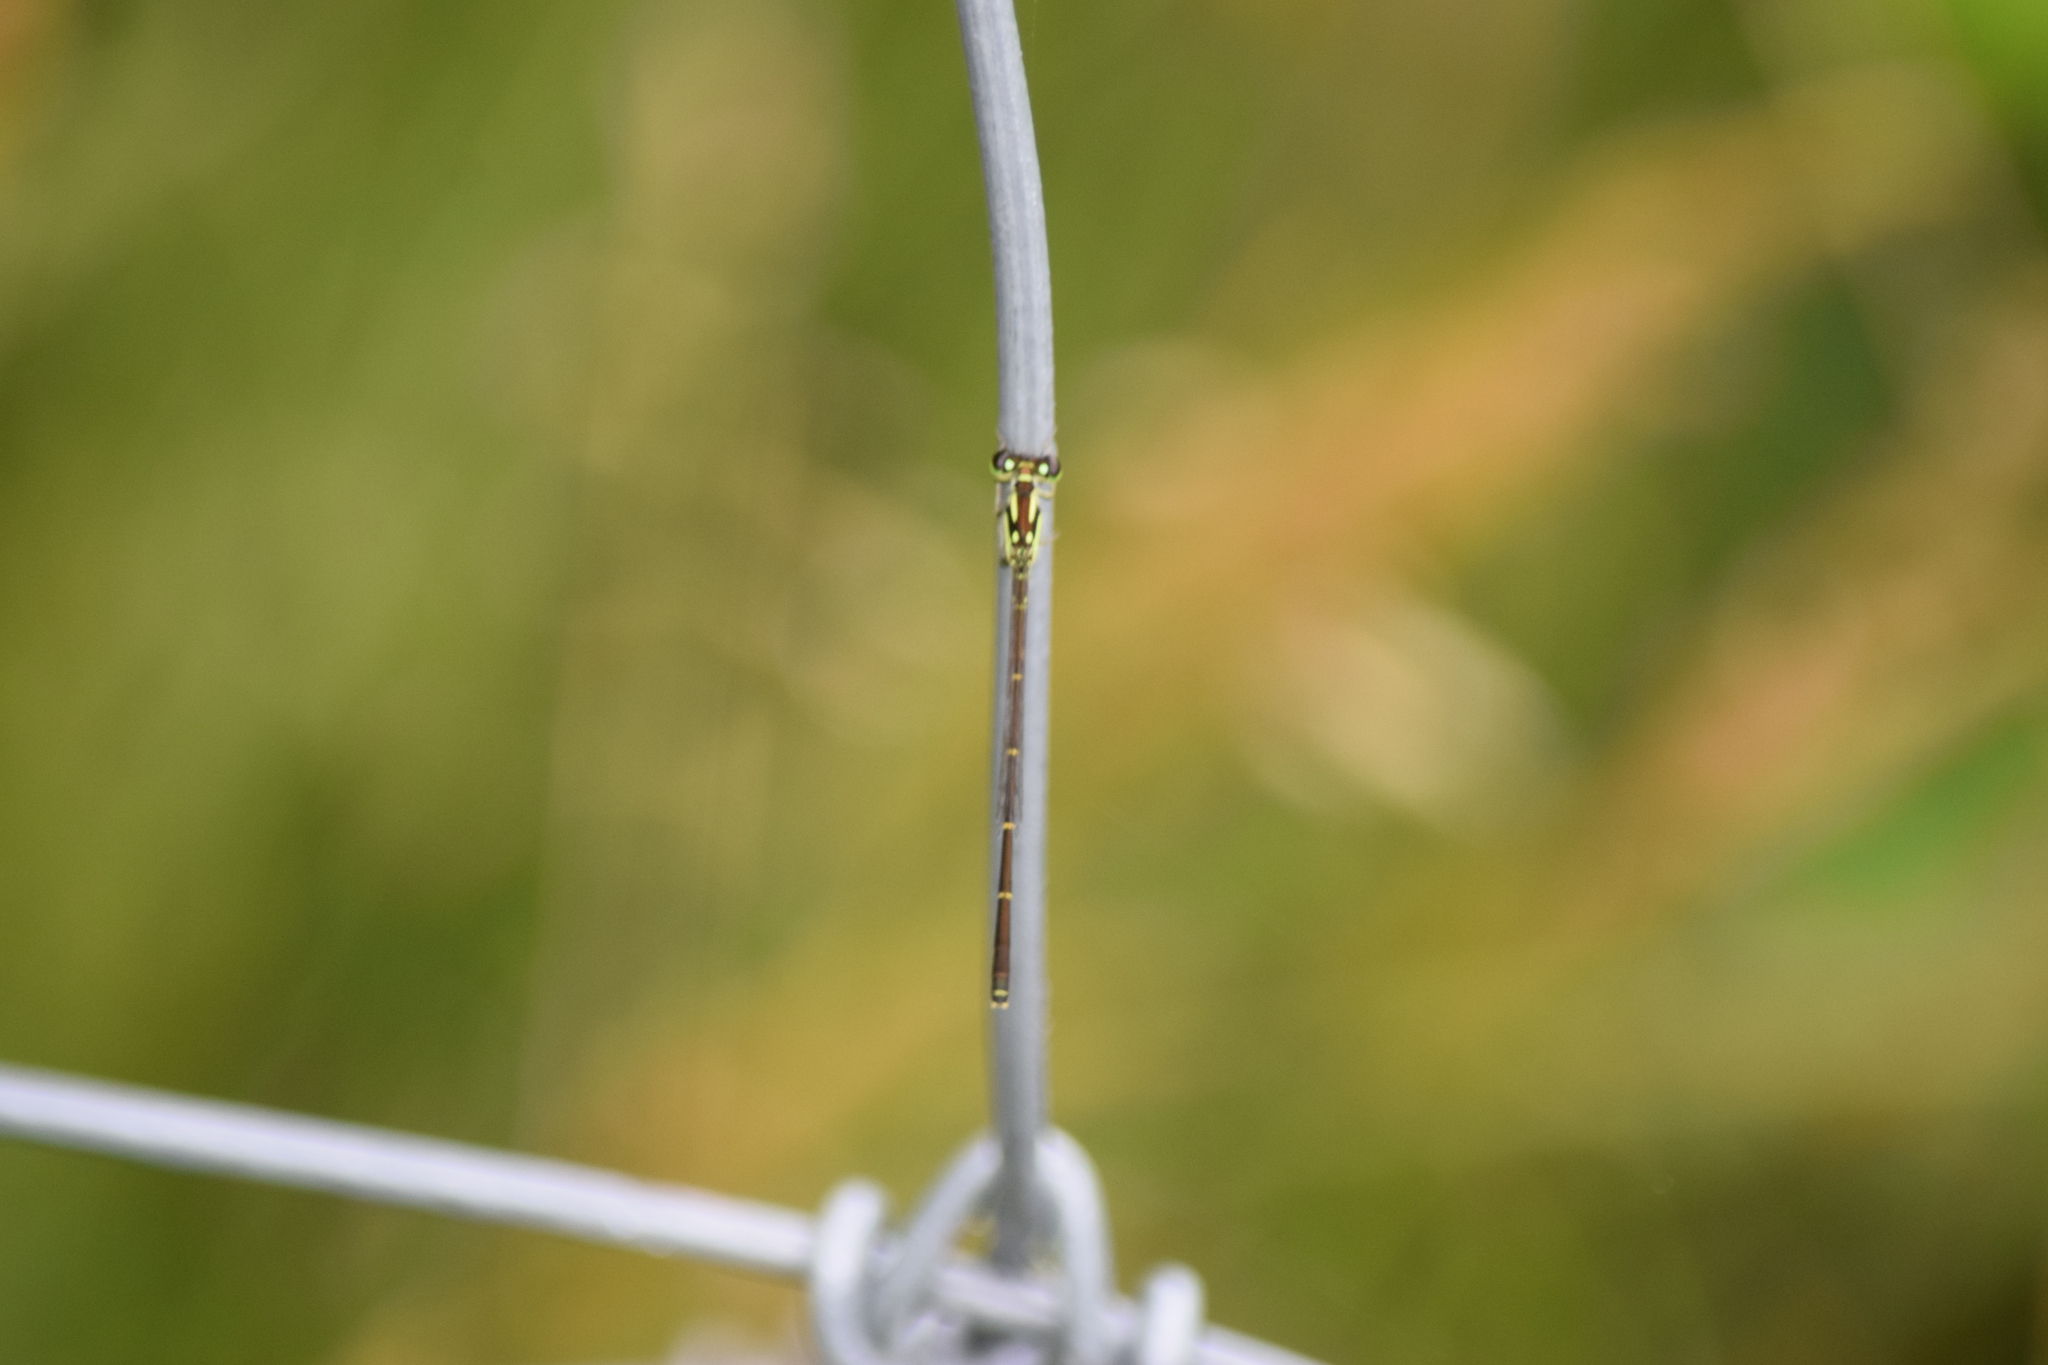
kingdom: Animalia
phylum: Arthropoda
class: Insecta
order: Odonata
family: Coenagrionidae
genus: Ischnura
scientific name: Ischnura posita
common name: Fragile forktail
